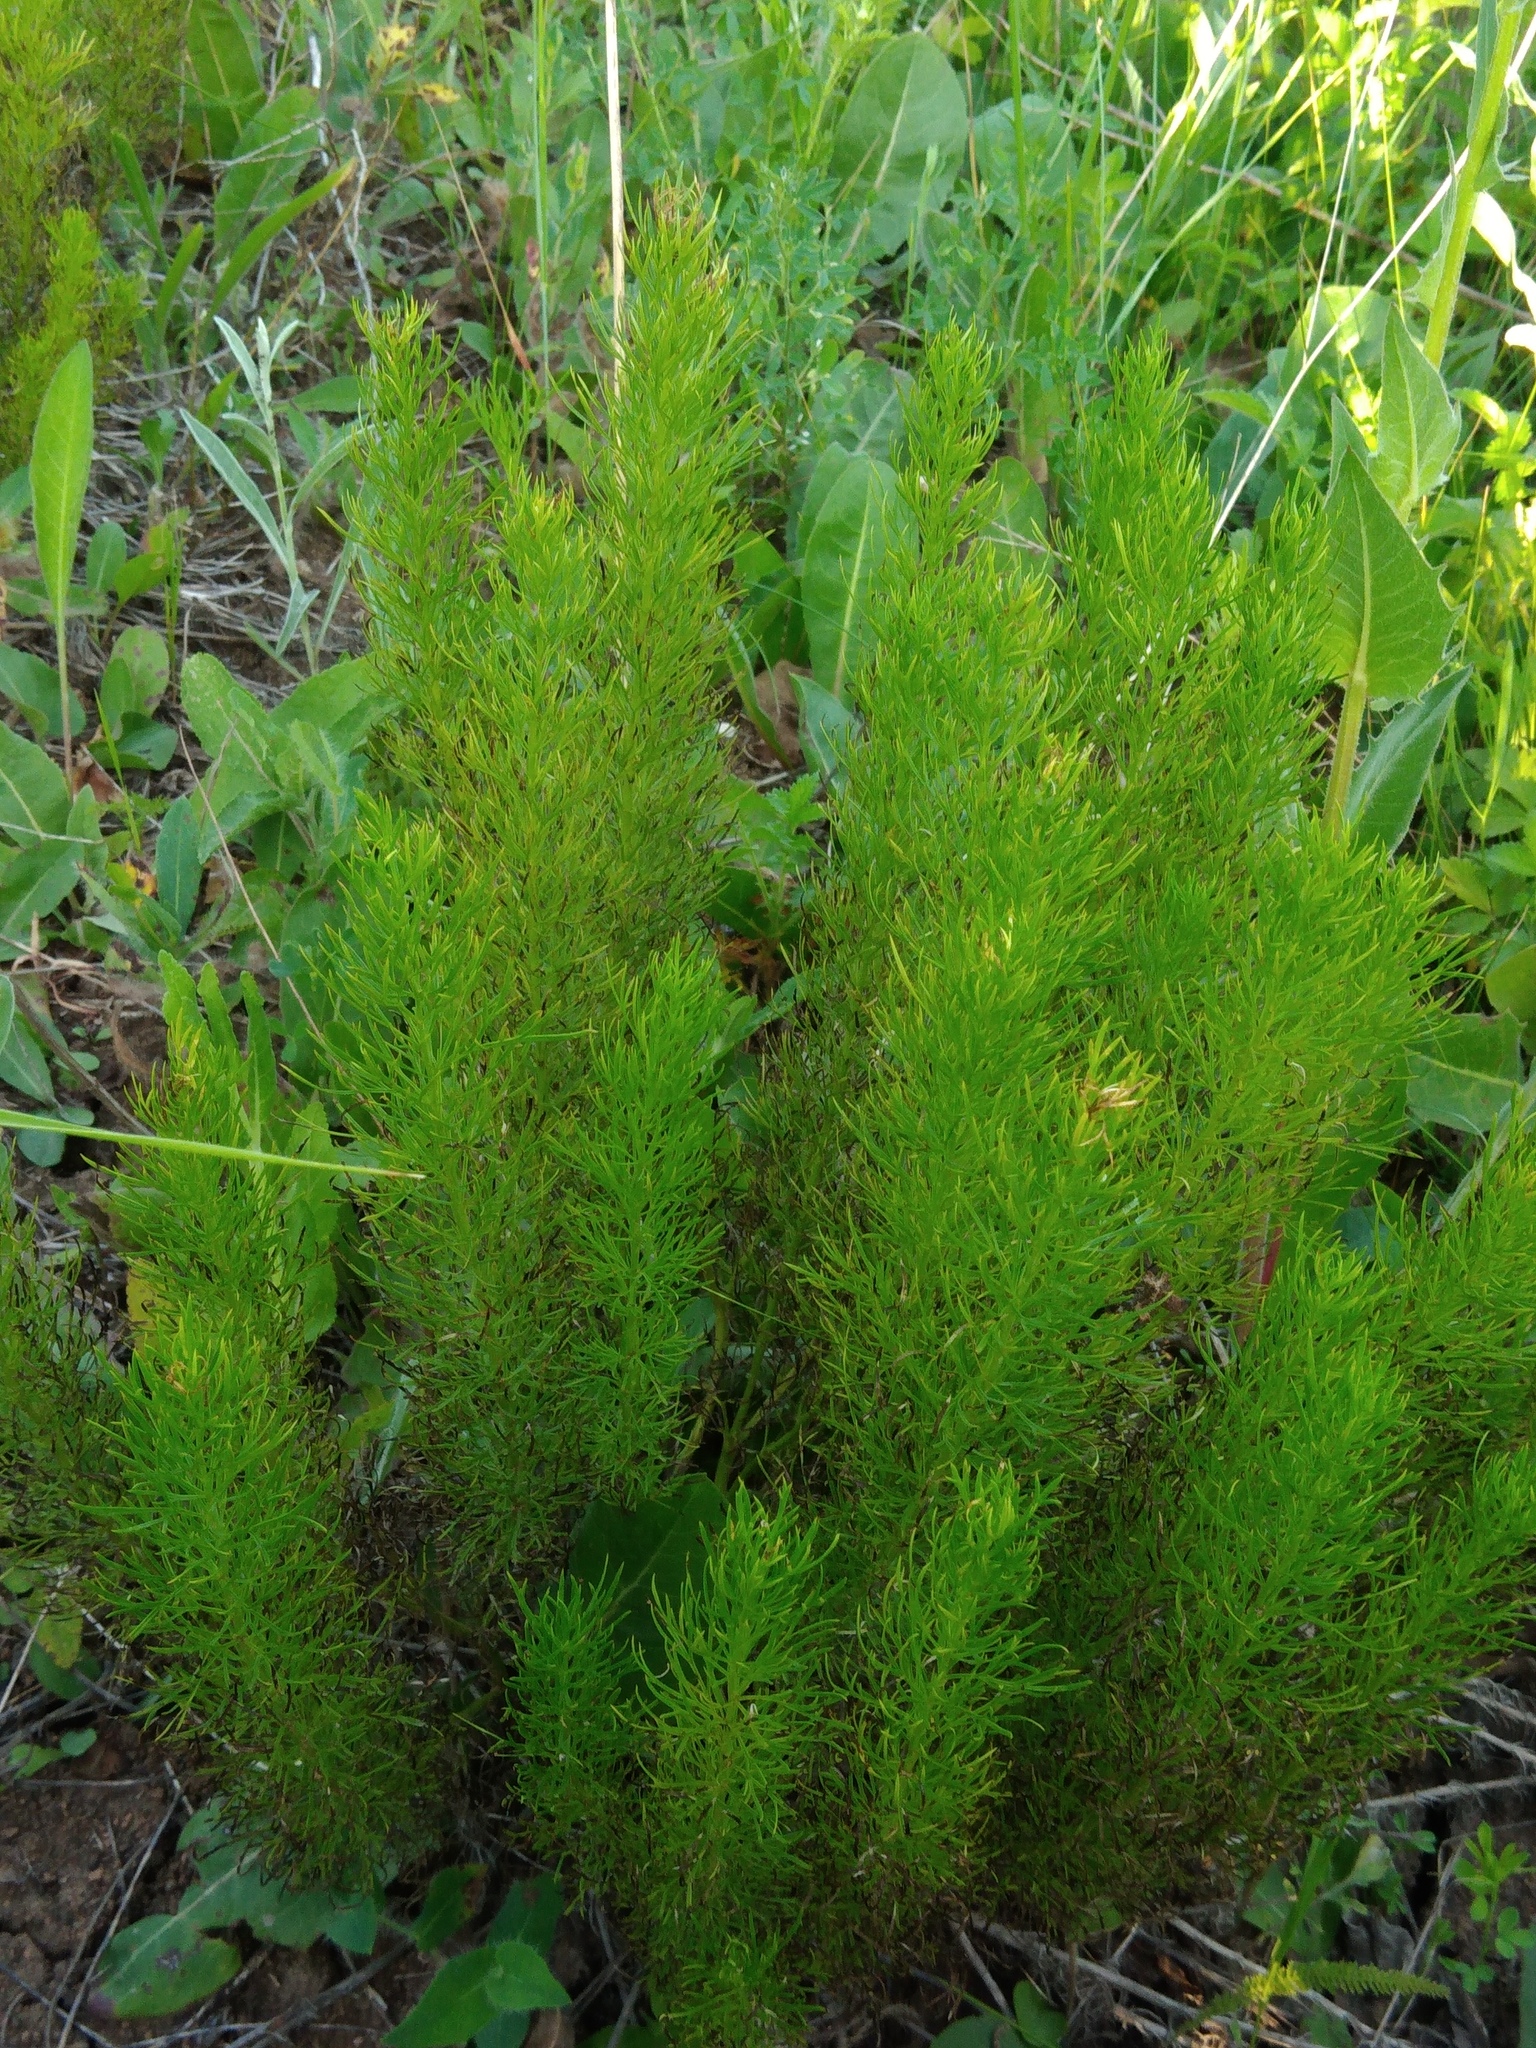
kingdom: Plantae
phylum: Tracheophyta
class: Magnoliopsida
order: Ranunculales
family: Ranunculaceae
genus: Adonis
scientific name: Adonis vernalis
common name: Yellow pheasants-eye
